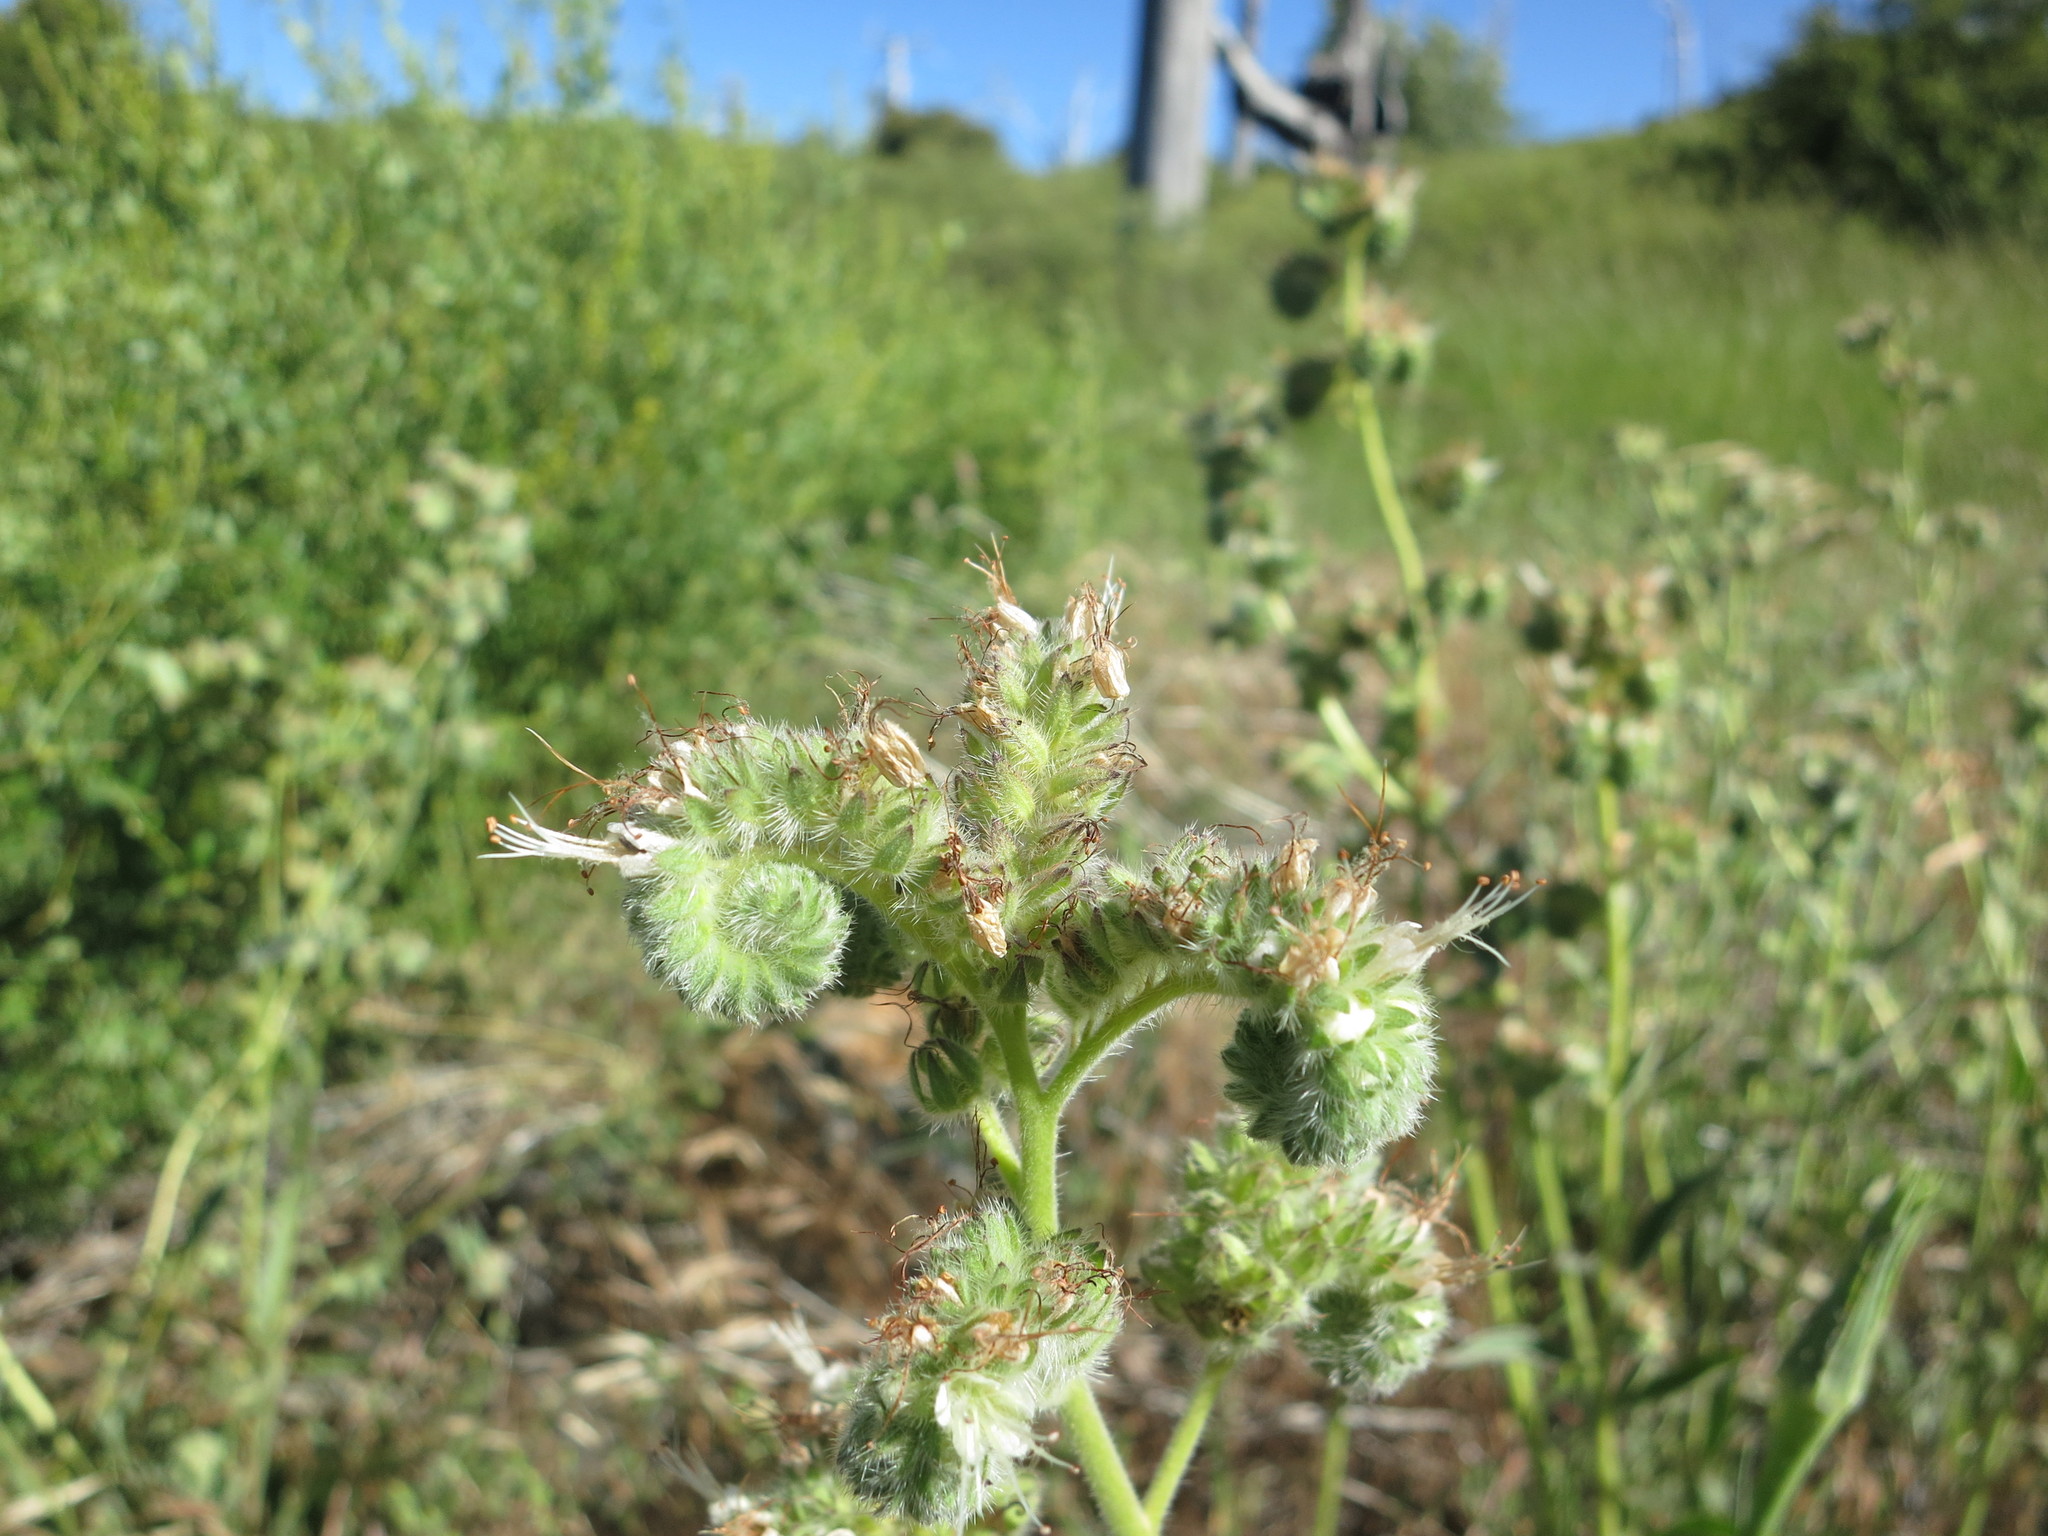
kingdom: Plantae
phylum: Tracheophyta
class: Magnoliopsida
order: Boraginales
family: Hydrophyllaceae
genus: Phacelia
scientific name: Phacelia imbricata
